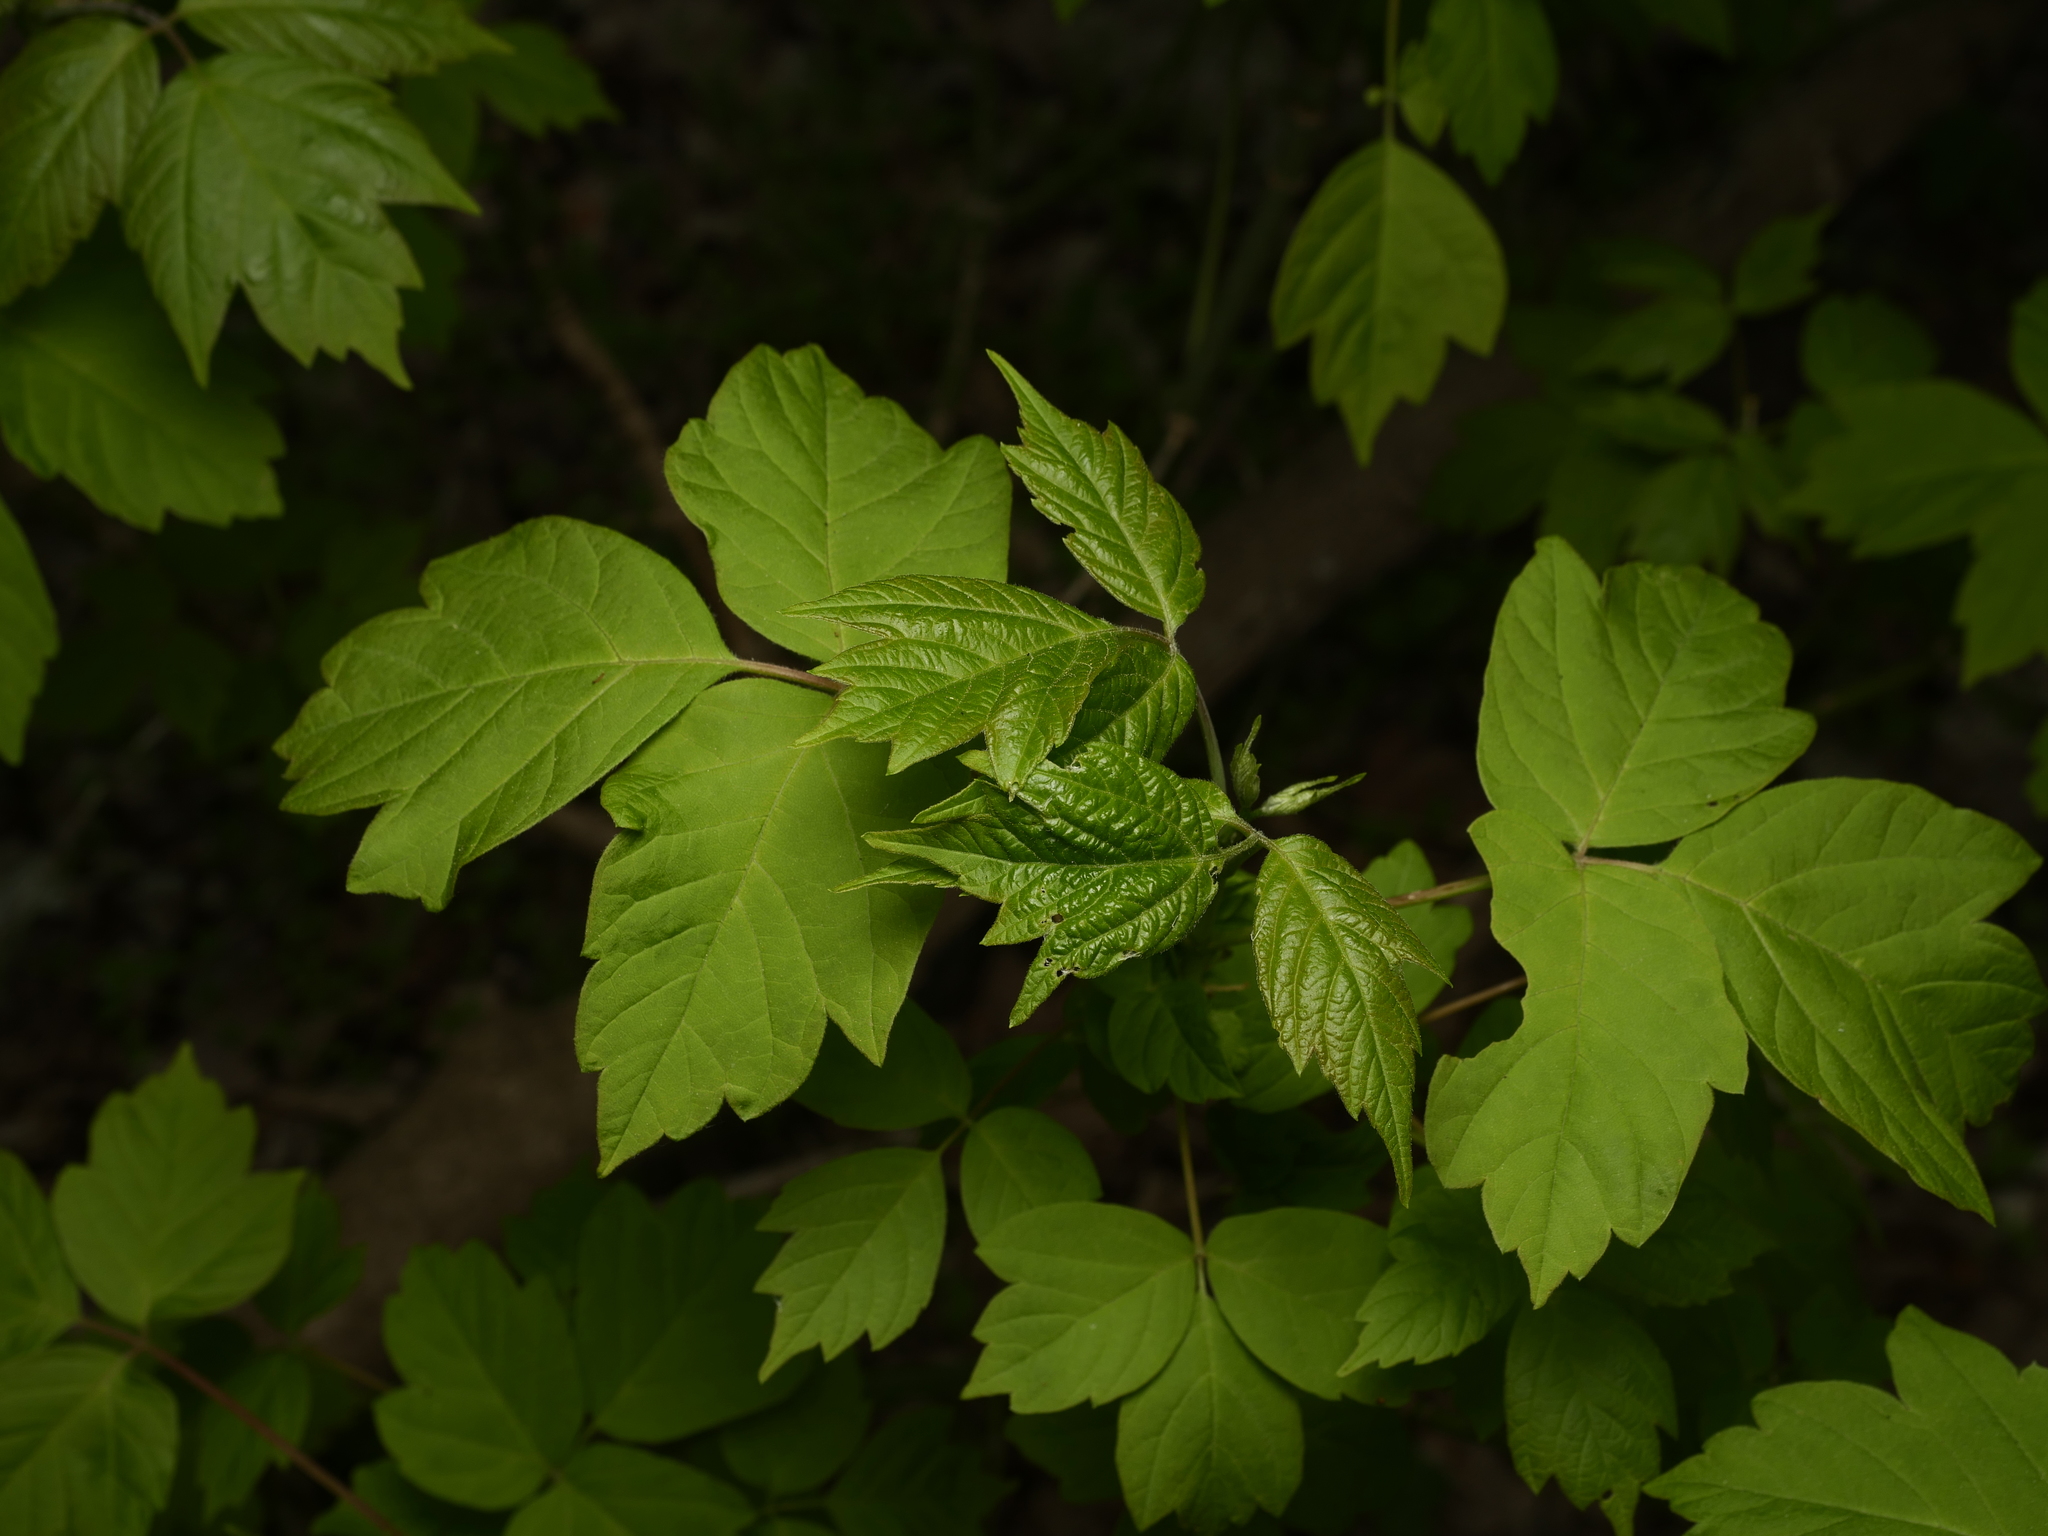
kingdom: Plantae
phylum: Tracheophyta
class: Magnoliopsida
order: Sapindales
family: Sapindaceae
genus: Acer
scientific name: Acer negundo
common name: Ashleaf maple
